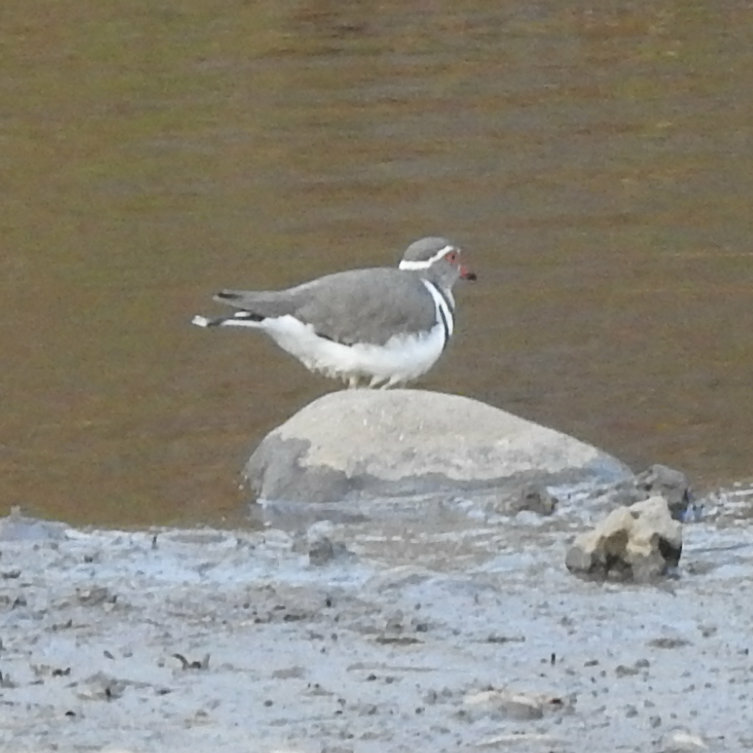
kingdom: Animalia
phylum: Chordata
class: Aves
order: Charadriiformes
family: Charadriidae
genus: Charadrius
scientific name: Charadrius tricollaris
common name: Three-banded plover
